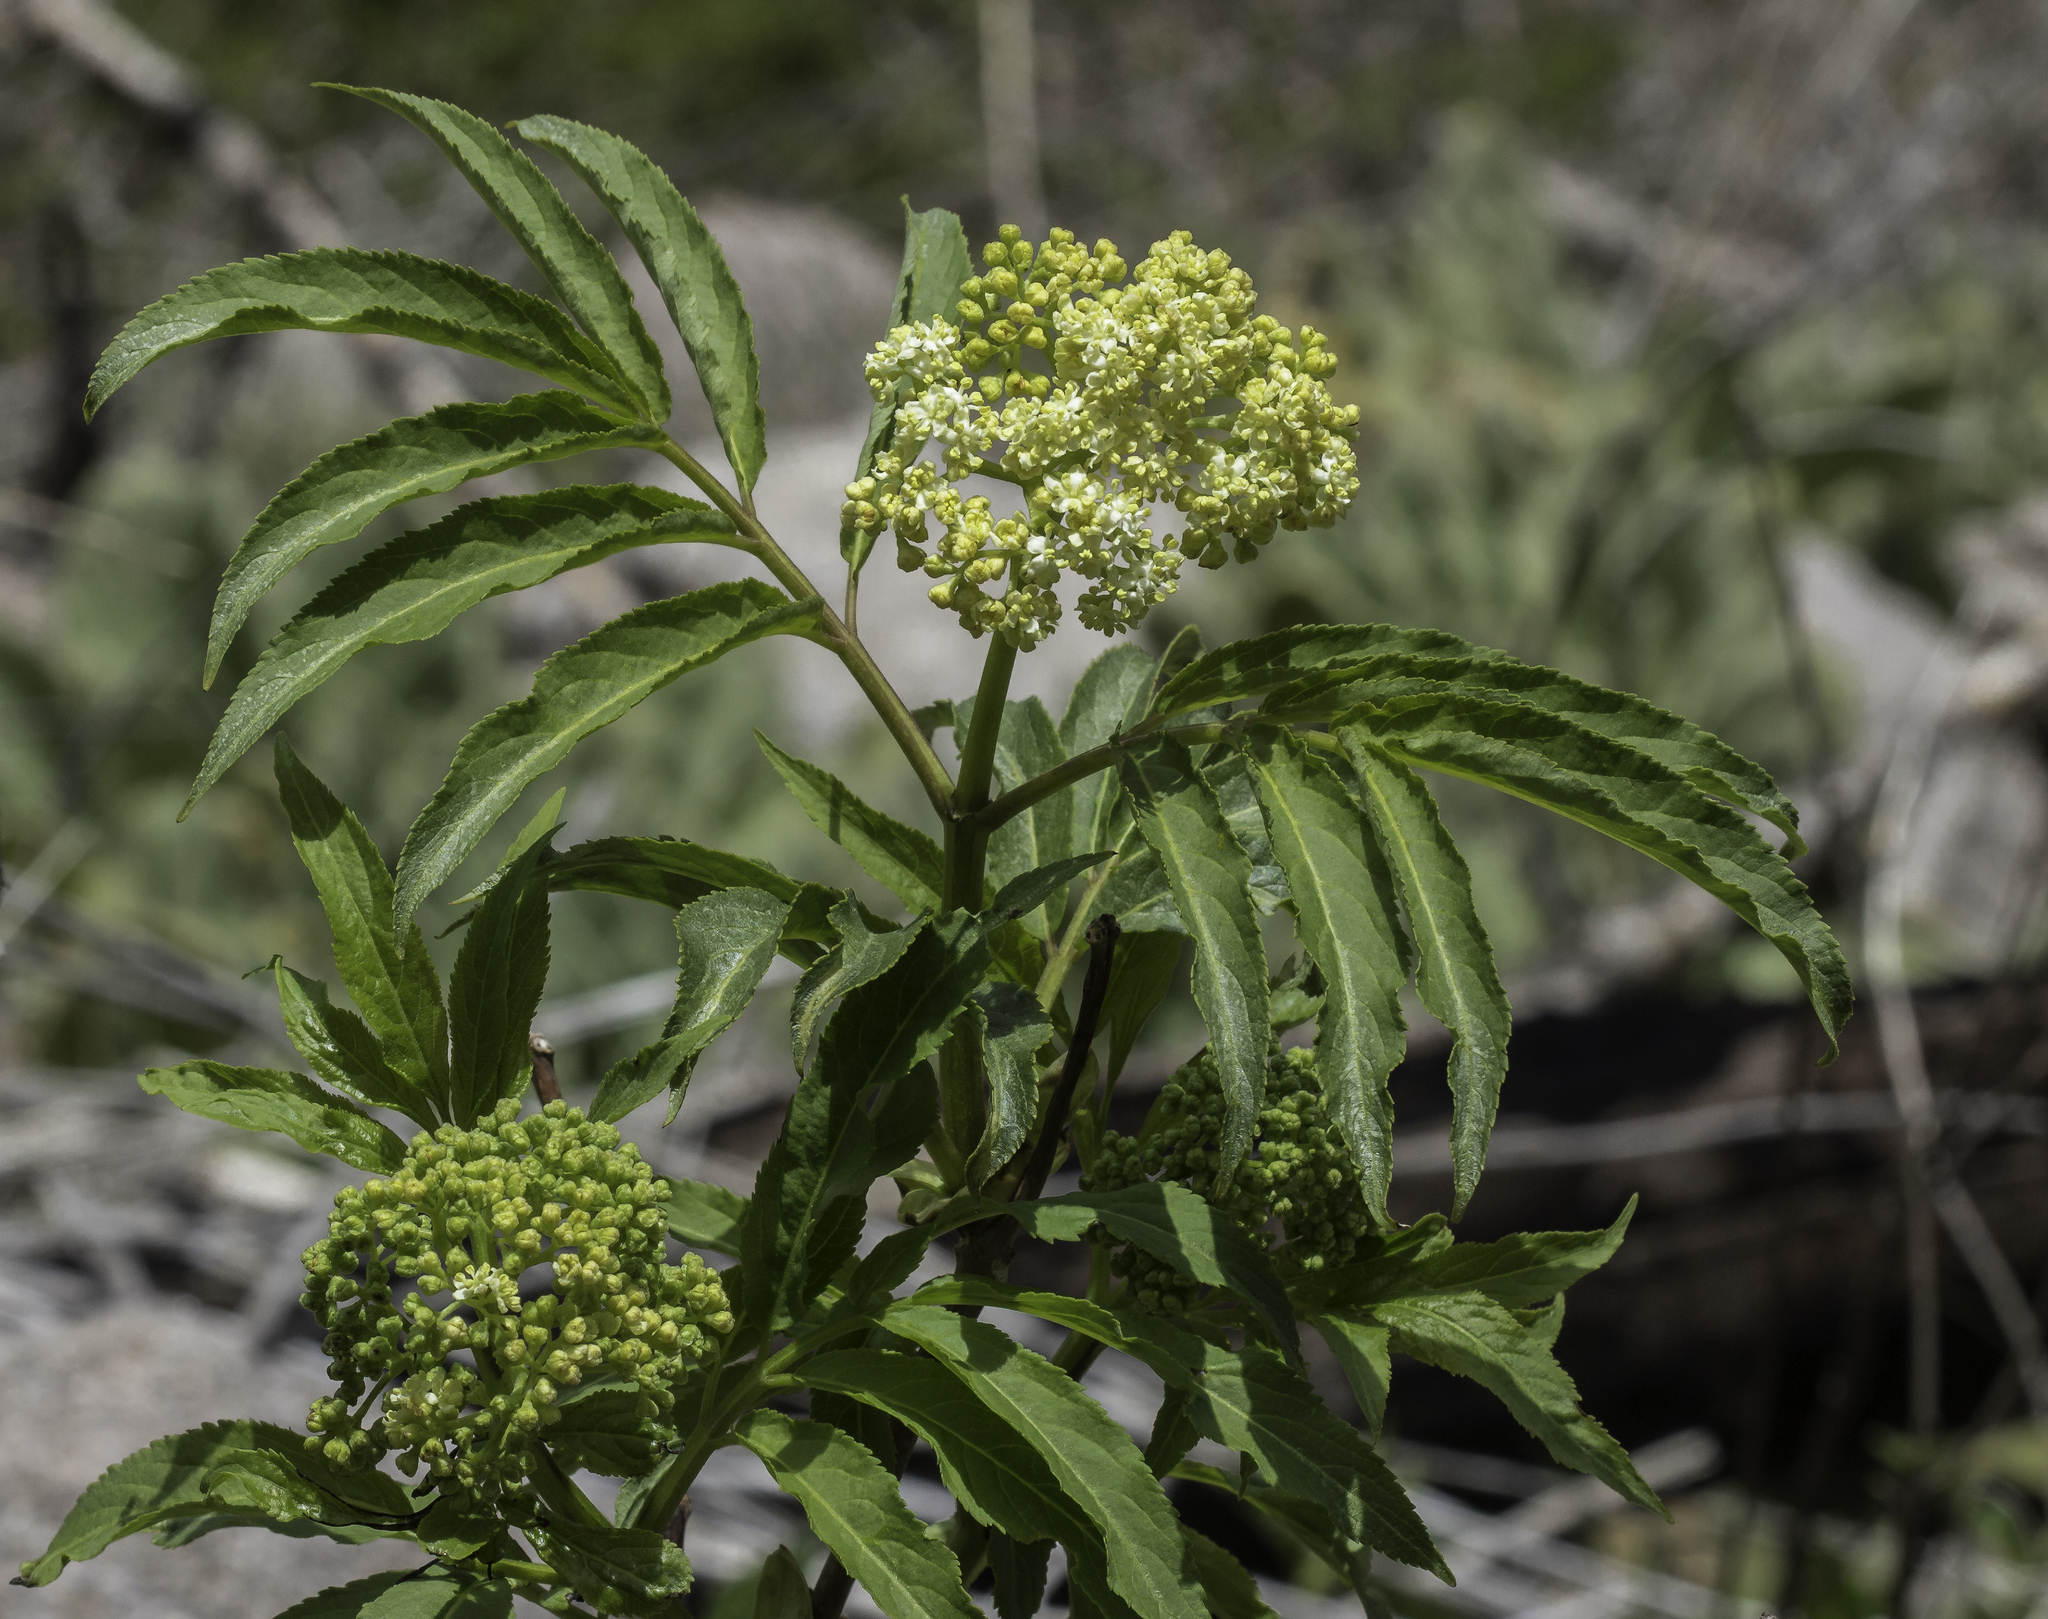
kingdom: Plantae
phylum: Tracheophyta
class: Magnoliopsida
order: Dipsacales
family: Viburnaceae
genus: Sambucus
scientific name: Sambucus racemosa
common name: Red-berried elder
